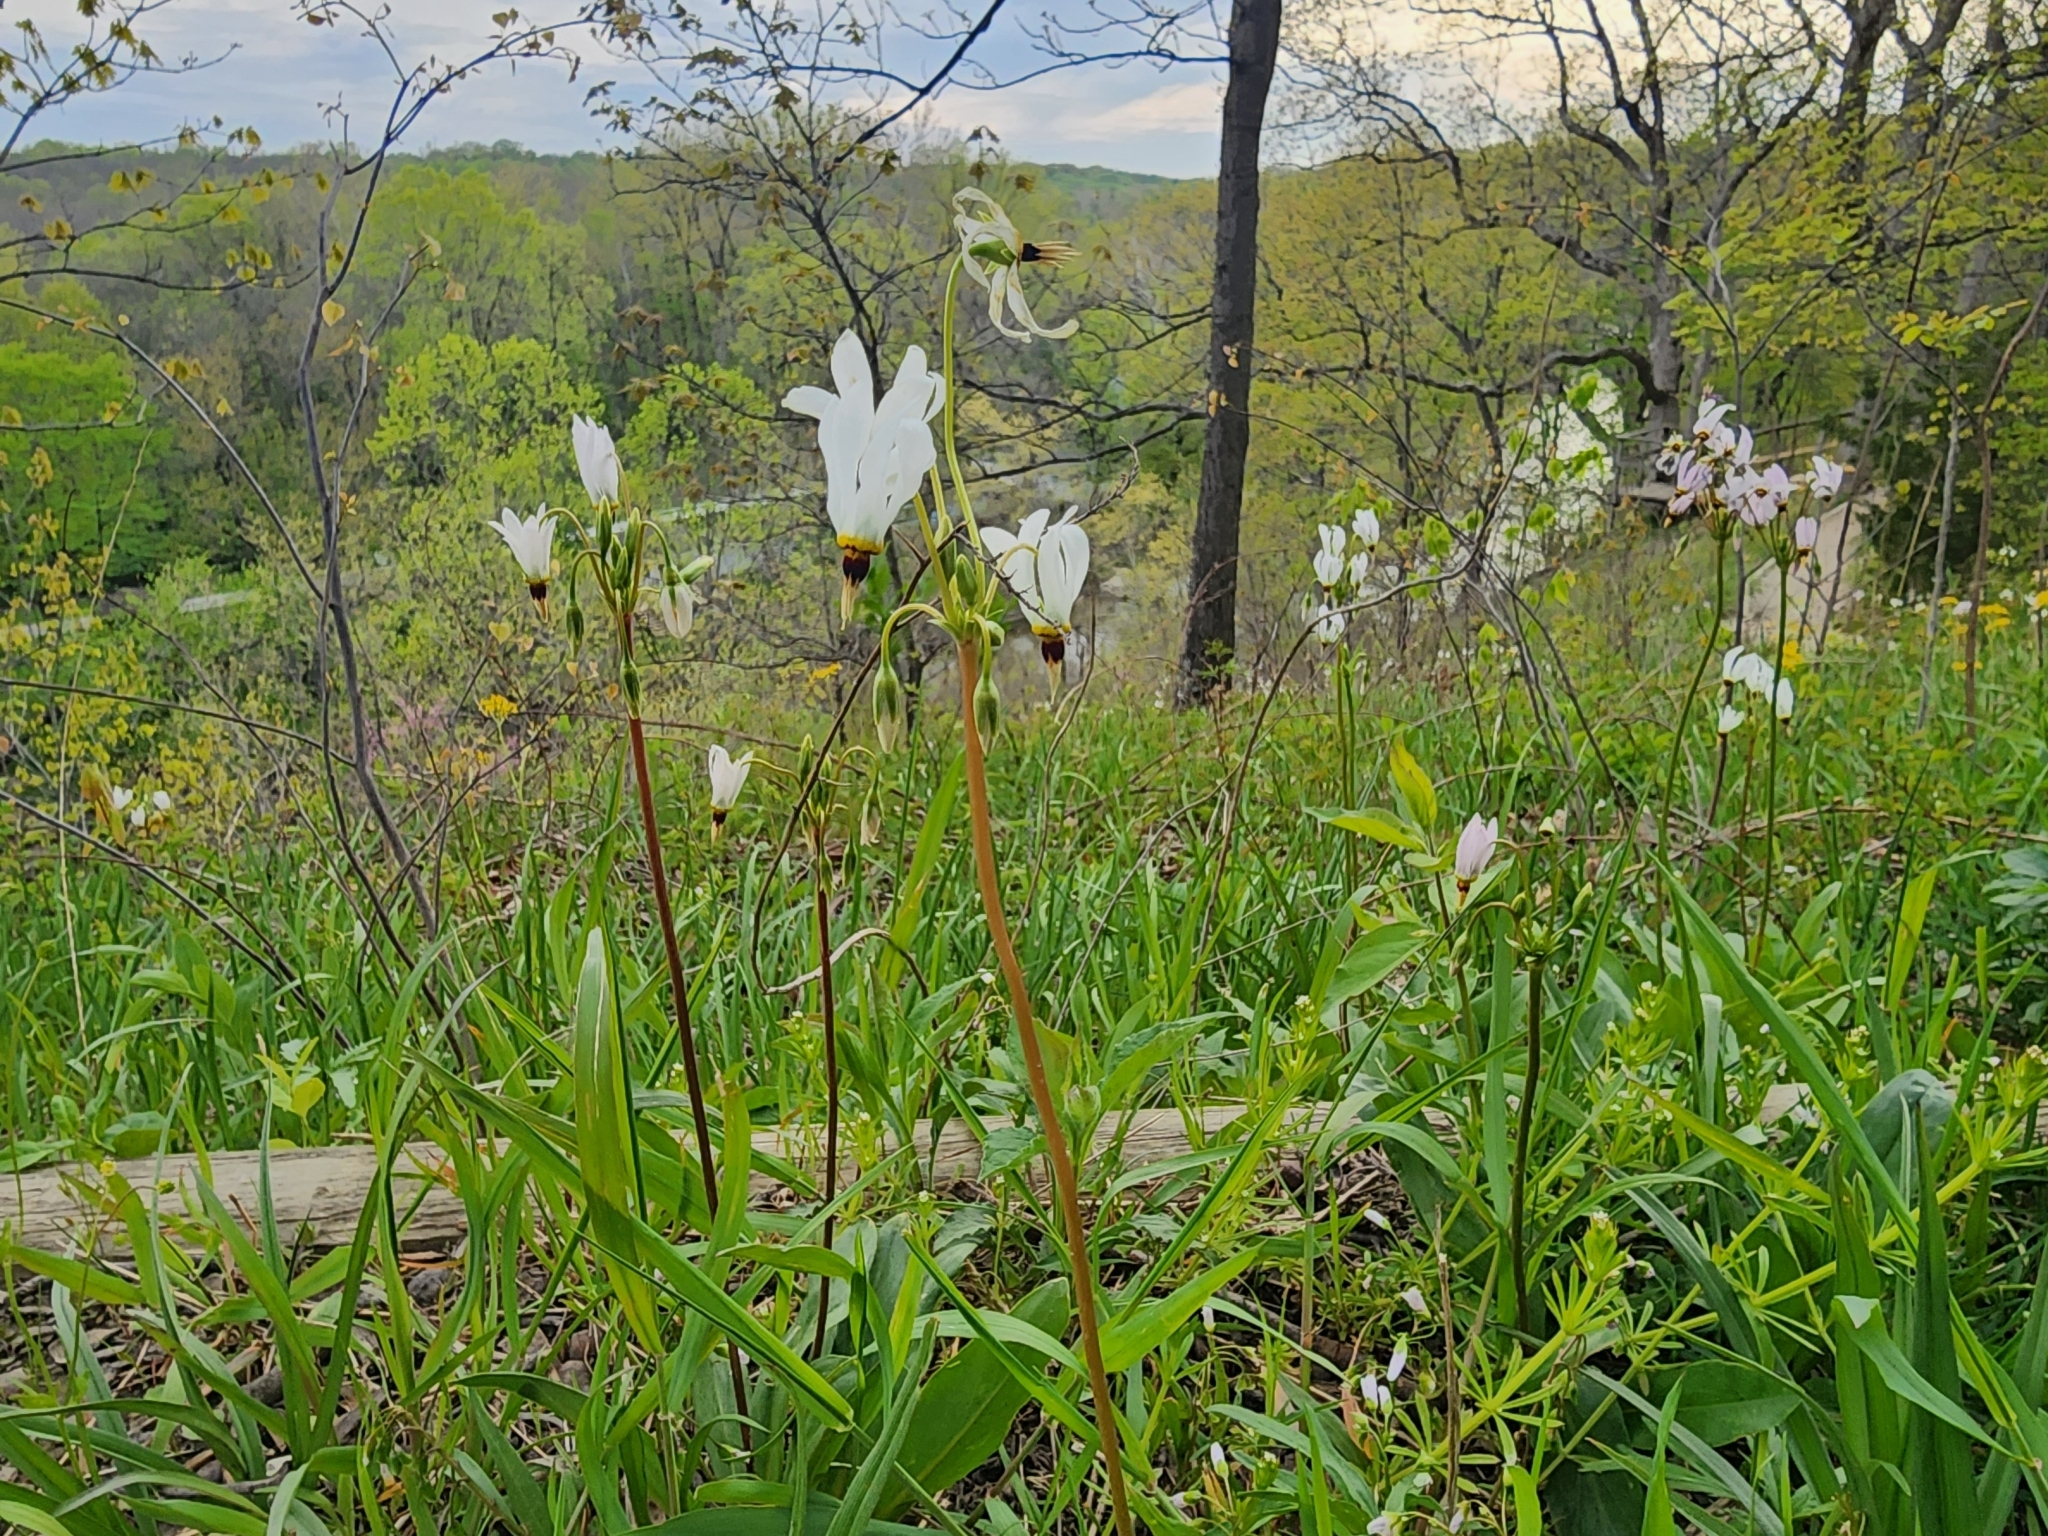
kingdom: Plantae
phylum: Tracheophyta
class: Magnoliopsida
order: Ericales
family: Primulaceae
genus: Dodecatheon
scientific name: Dodecatheon meadia
